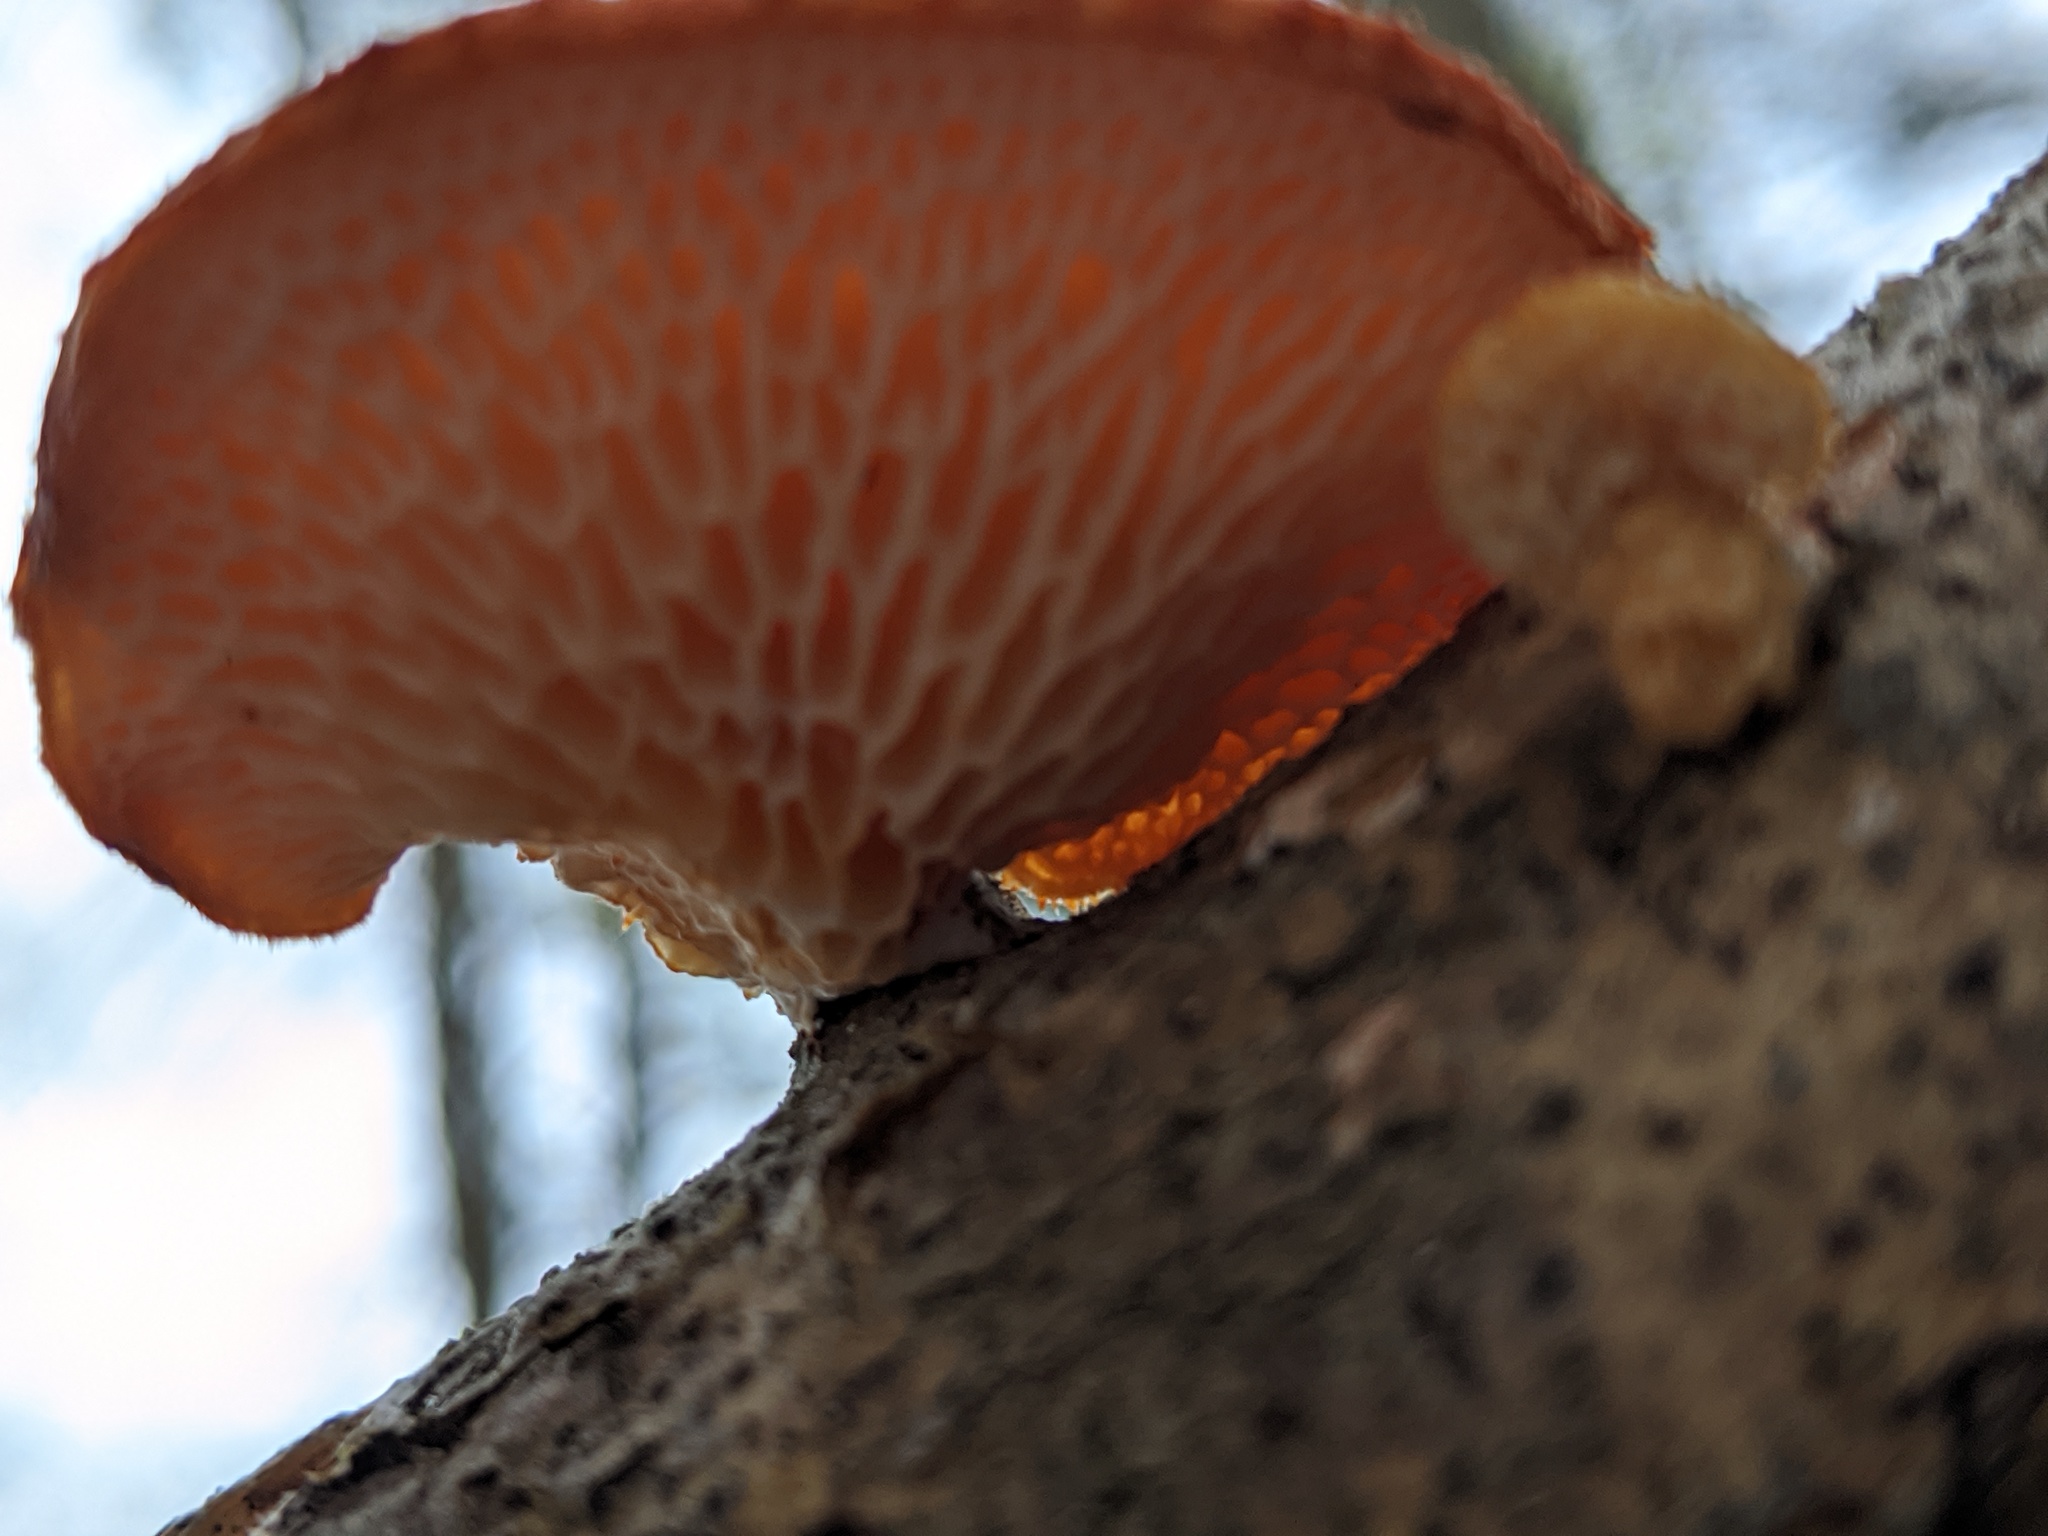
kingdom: Fungi
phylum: Basidiomycota
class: Agaricomycetes
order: Polyporales
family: Polyporaceae
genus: Neofavolus
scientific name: Neofavolus alveolaris
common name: Hexagonal-pored polypore
